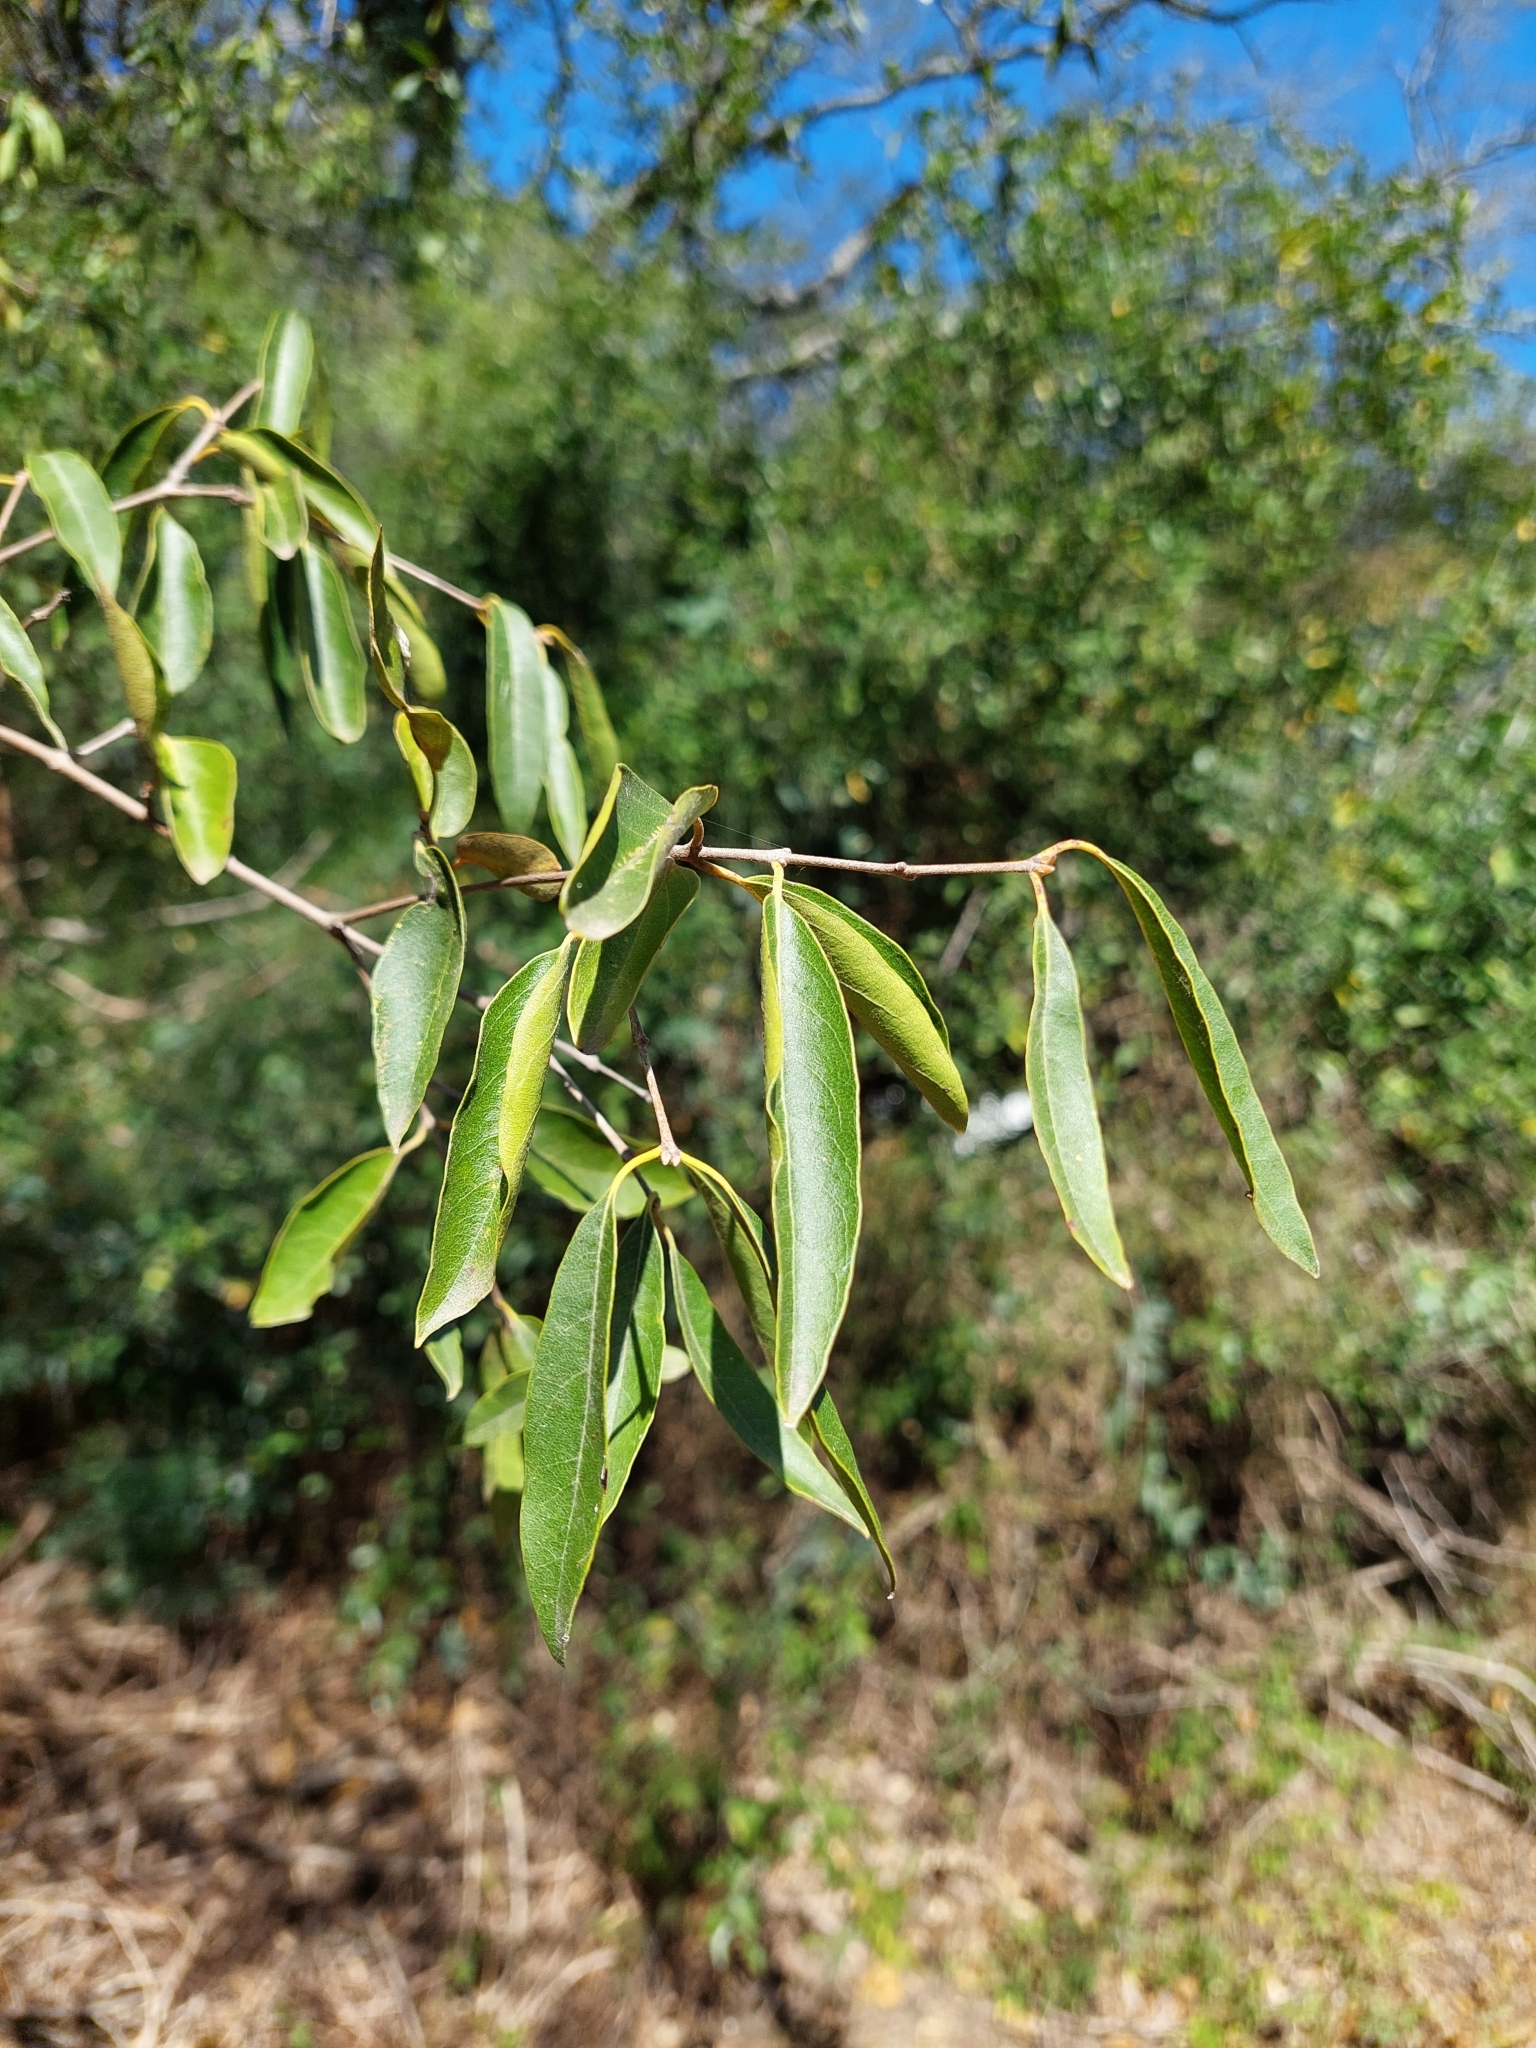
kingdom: Plantae
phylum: Tracheophyta
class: Magnoliopsida
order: Myrtales
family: Myrtaceae
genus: Eugenia
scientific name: Eugenia myrcianthes
